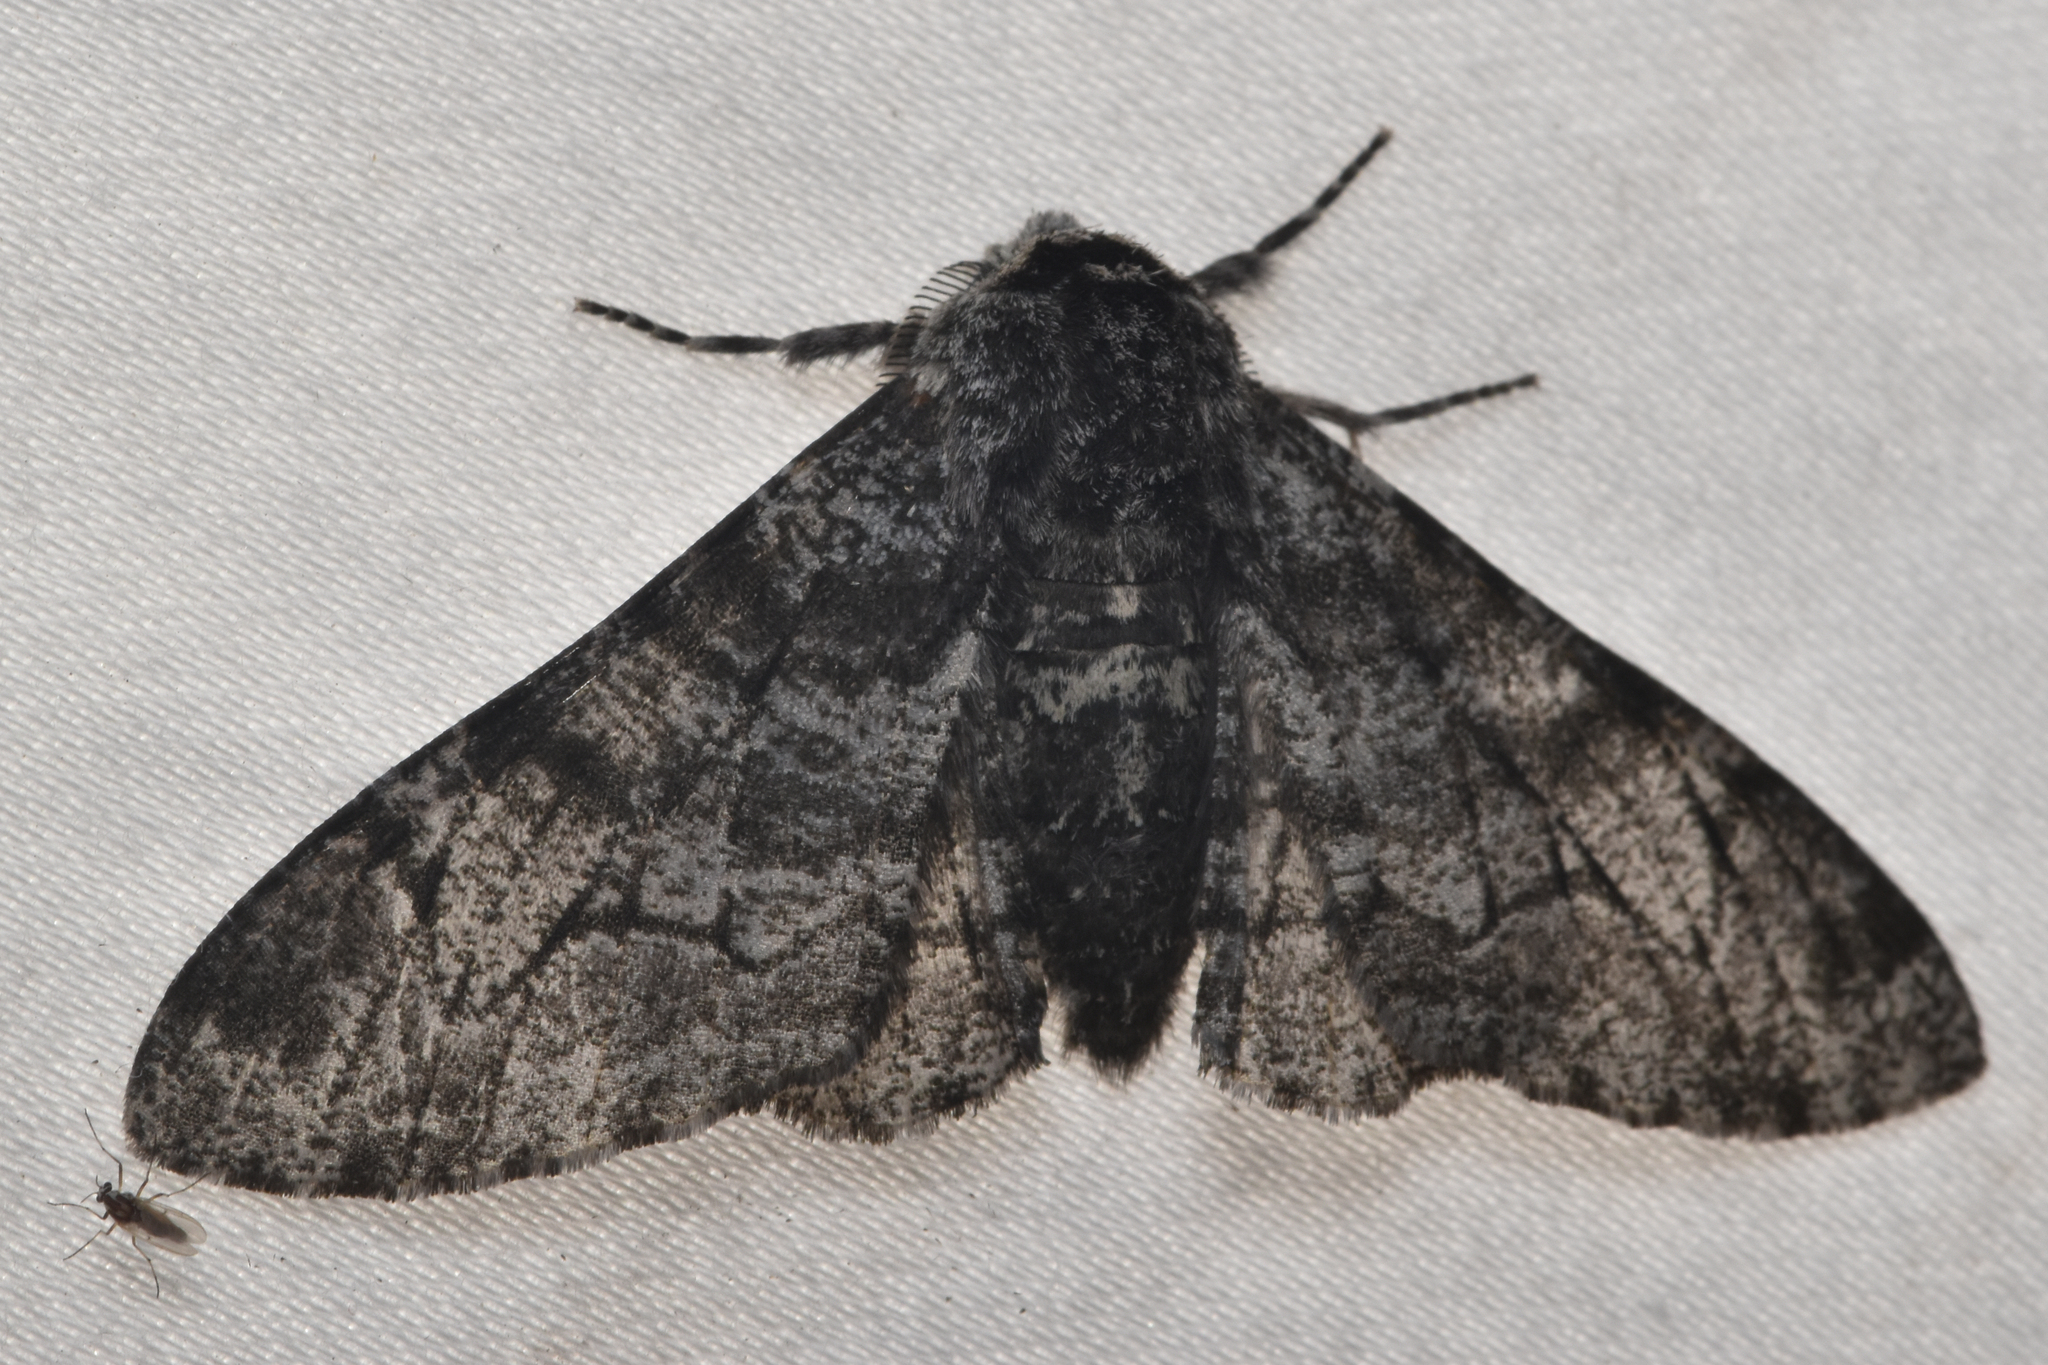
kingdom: Animalia
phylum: Arthropoda
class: Insecta
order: Lepidoptera
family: Geometridae
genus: Biston
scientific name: Biston betularia
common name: Peppered moth
